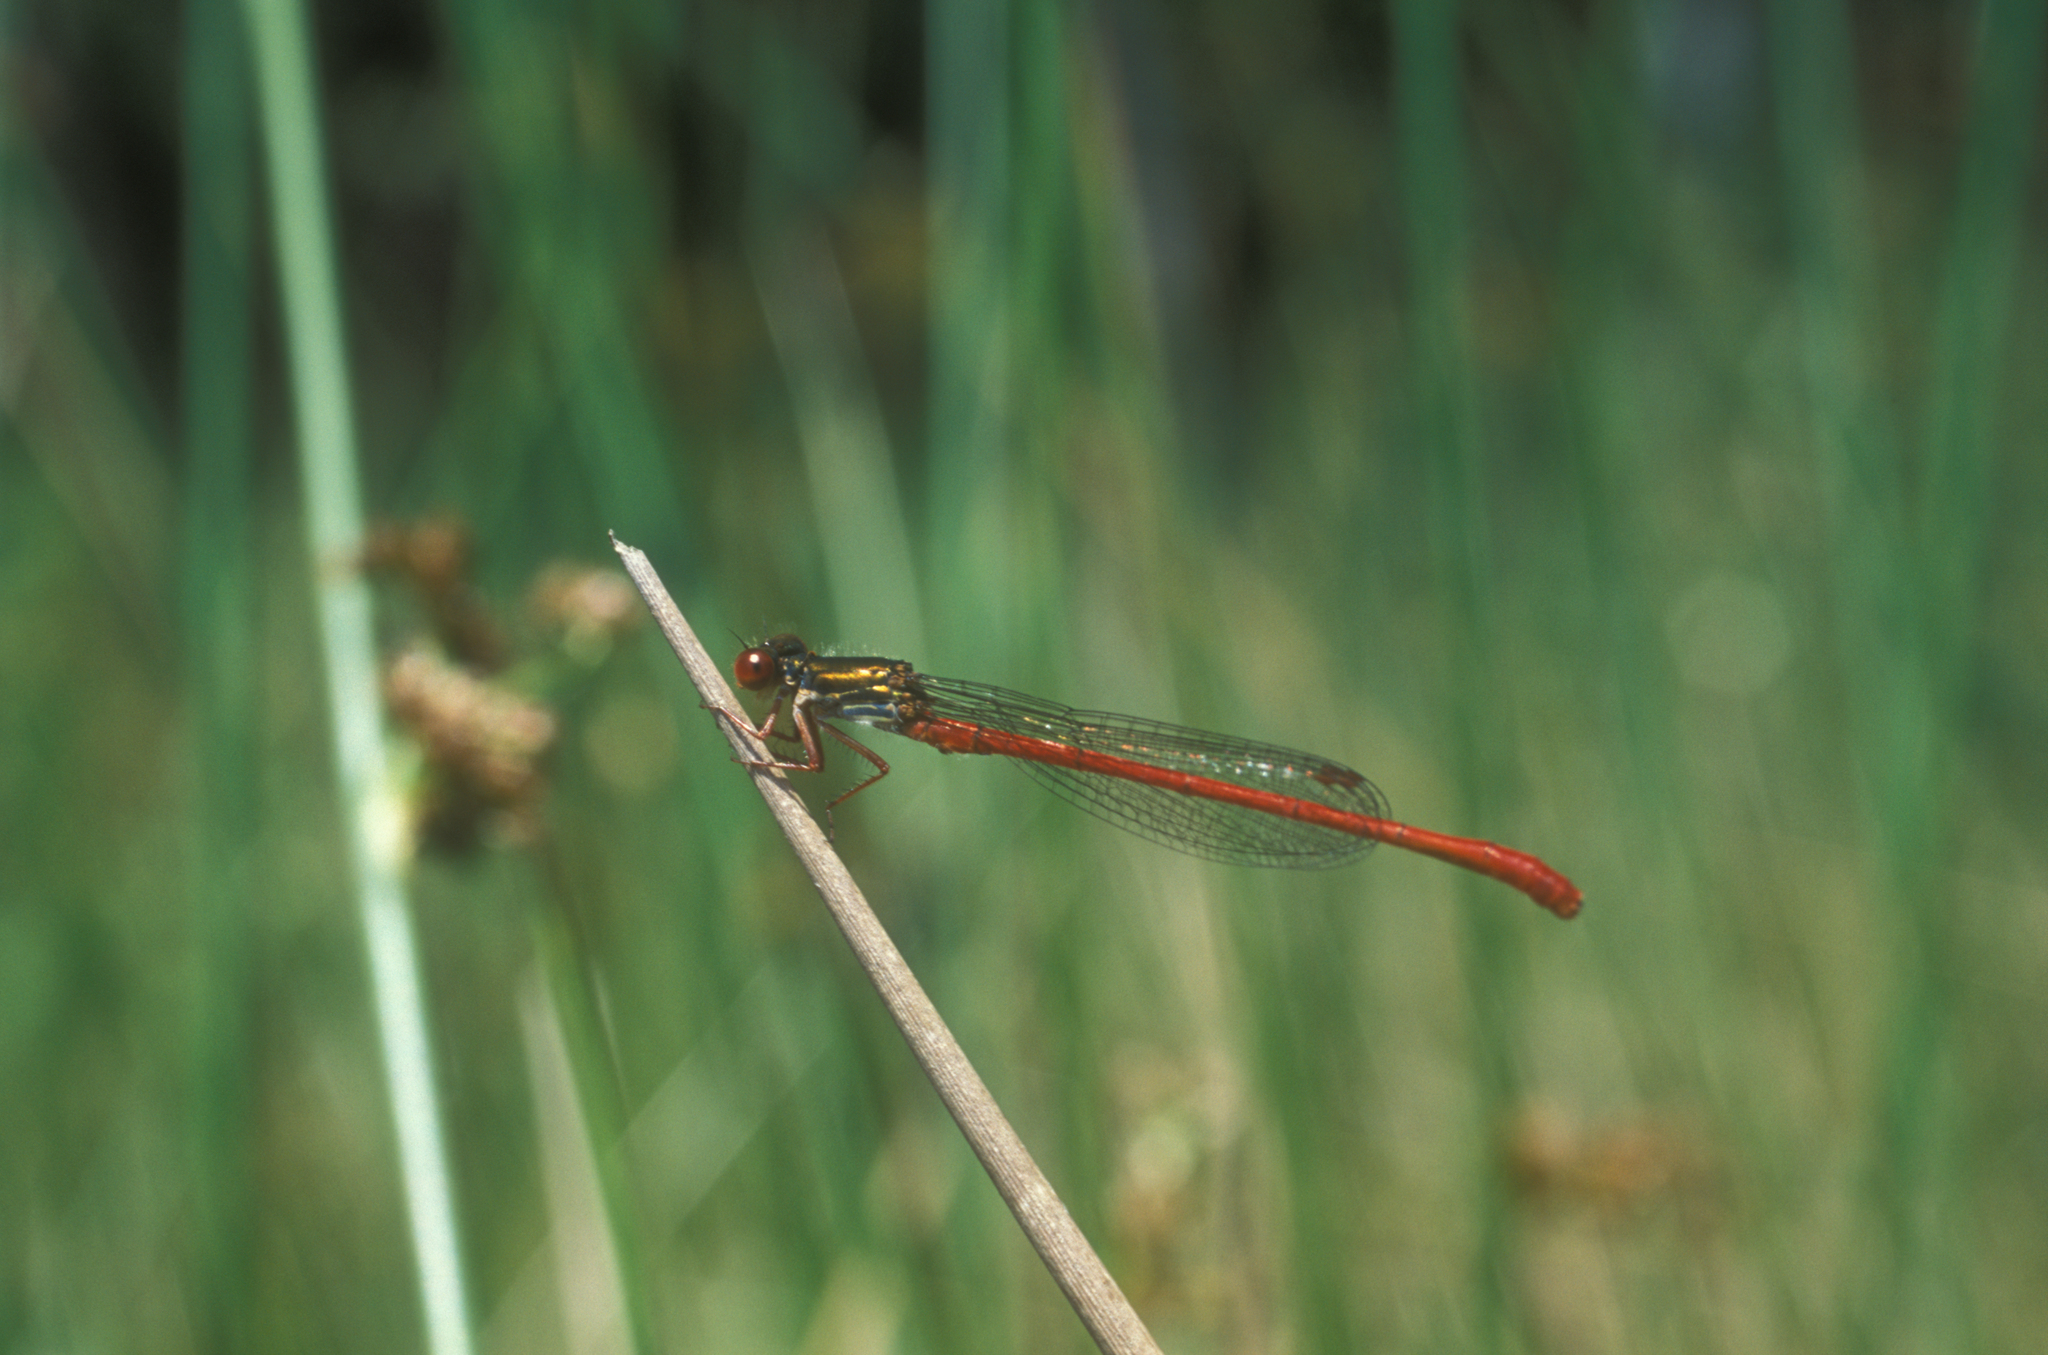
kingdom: Animalia
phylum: Arthropoda
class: Insecta
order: Odonata
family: Coenagrionidae
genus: Ceriagrion
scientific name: Ceriagrion tenellum
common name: Small red damselfly
